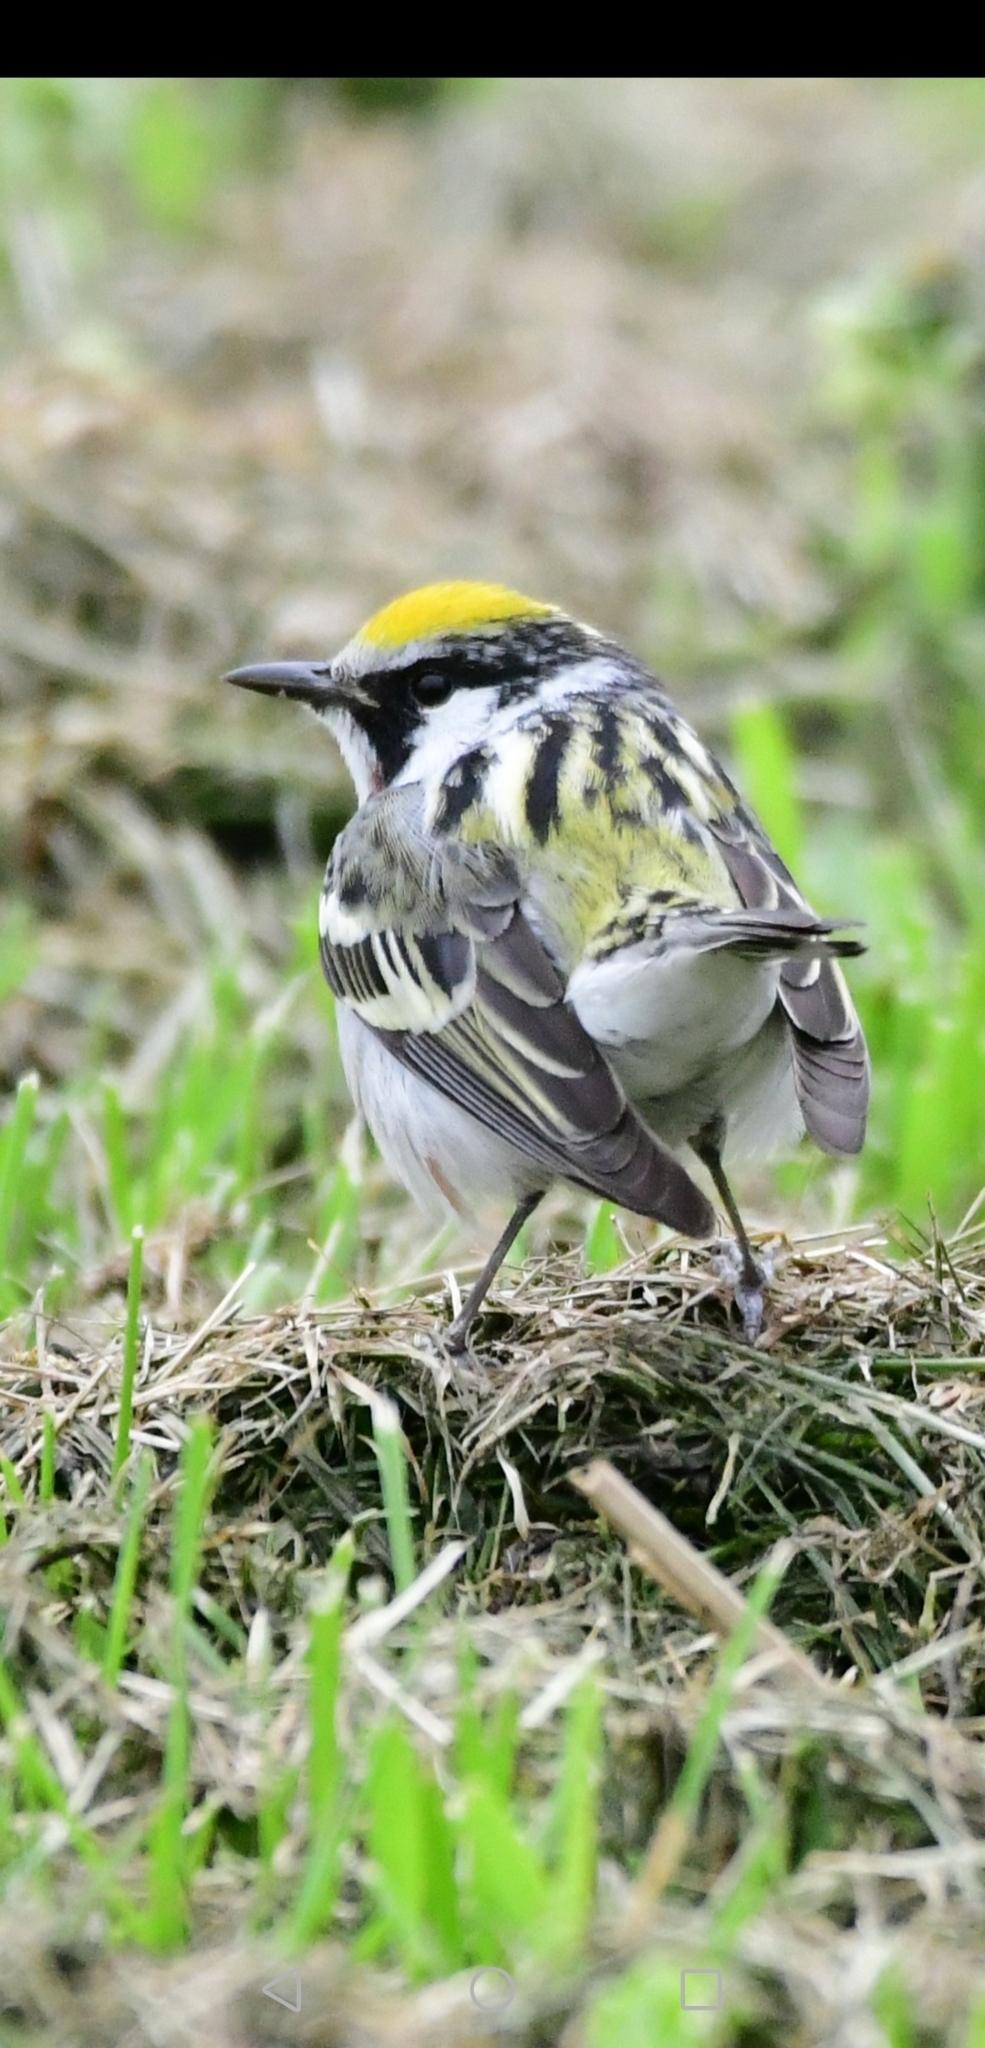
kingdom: Animalia
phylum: Chordata
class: Aves
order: Passeriformes
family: Parulidae
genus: Setophaga
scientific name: Setophaga pensylvanica
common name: Chestnut-sided warbler
